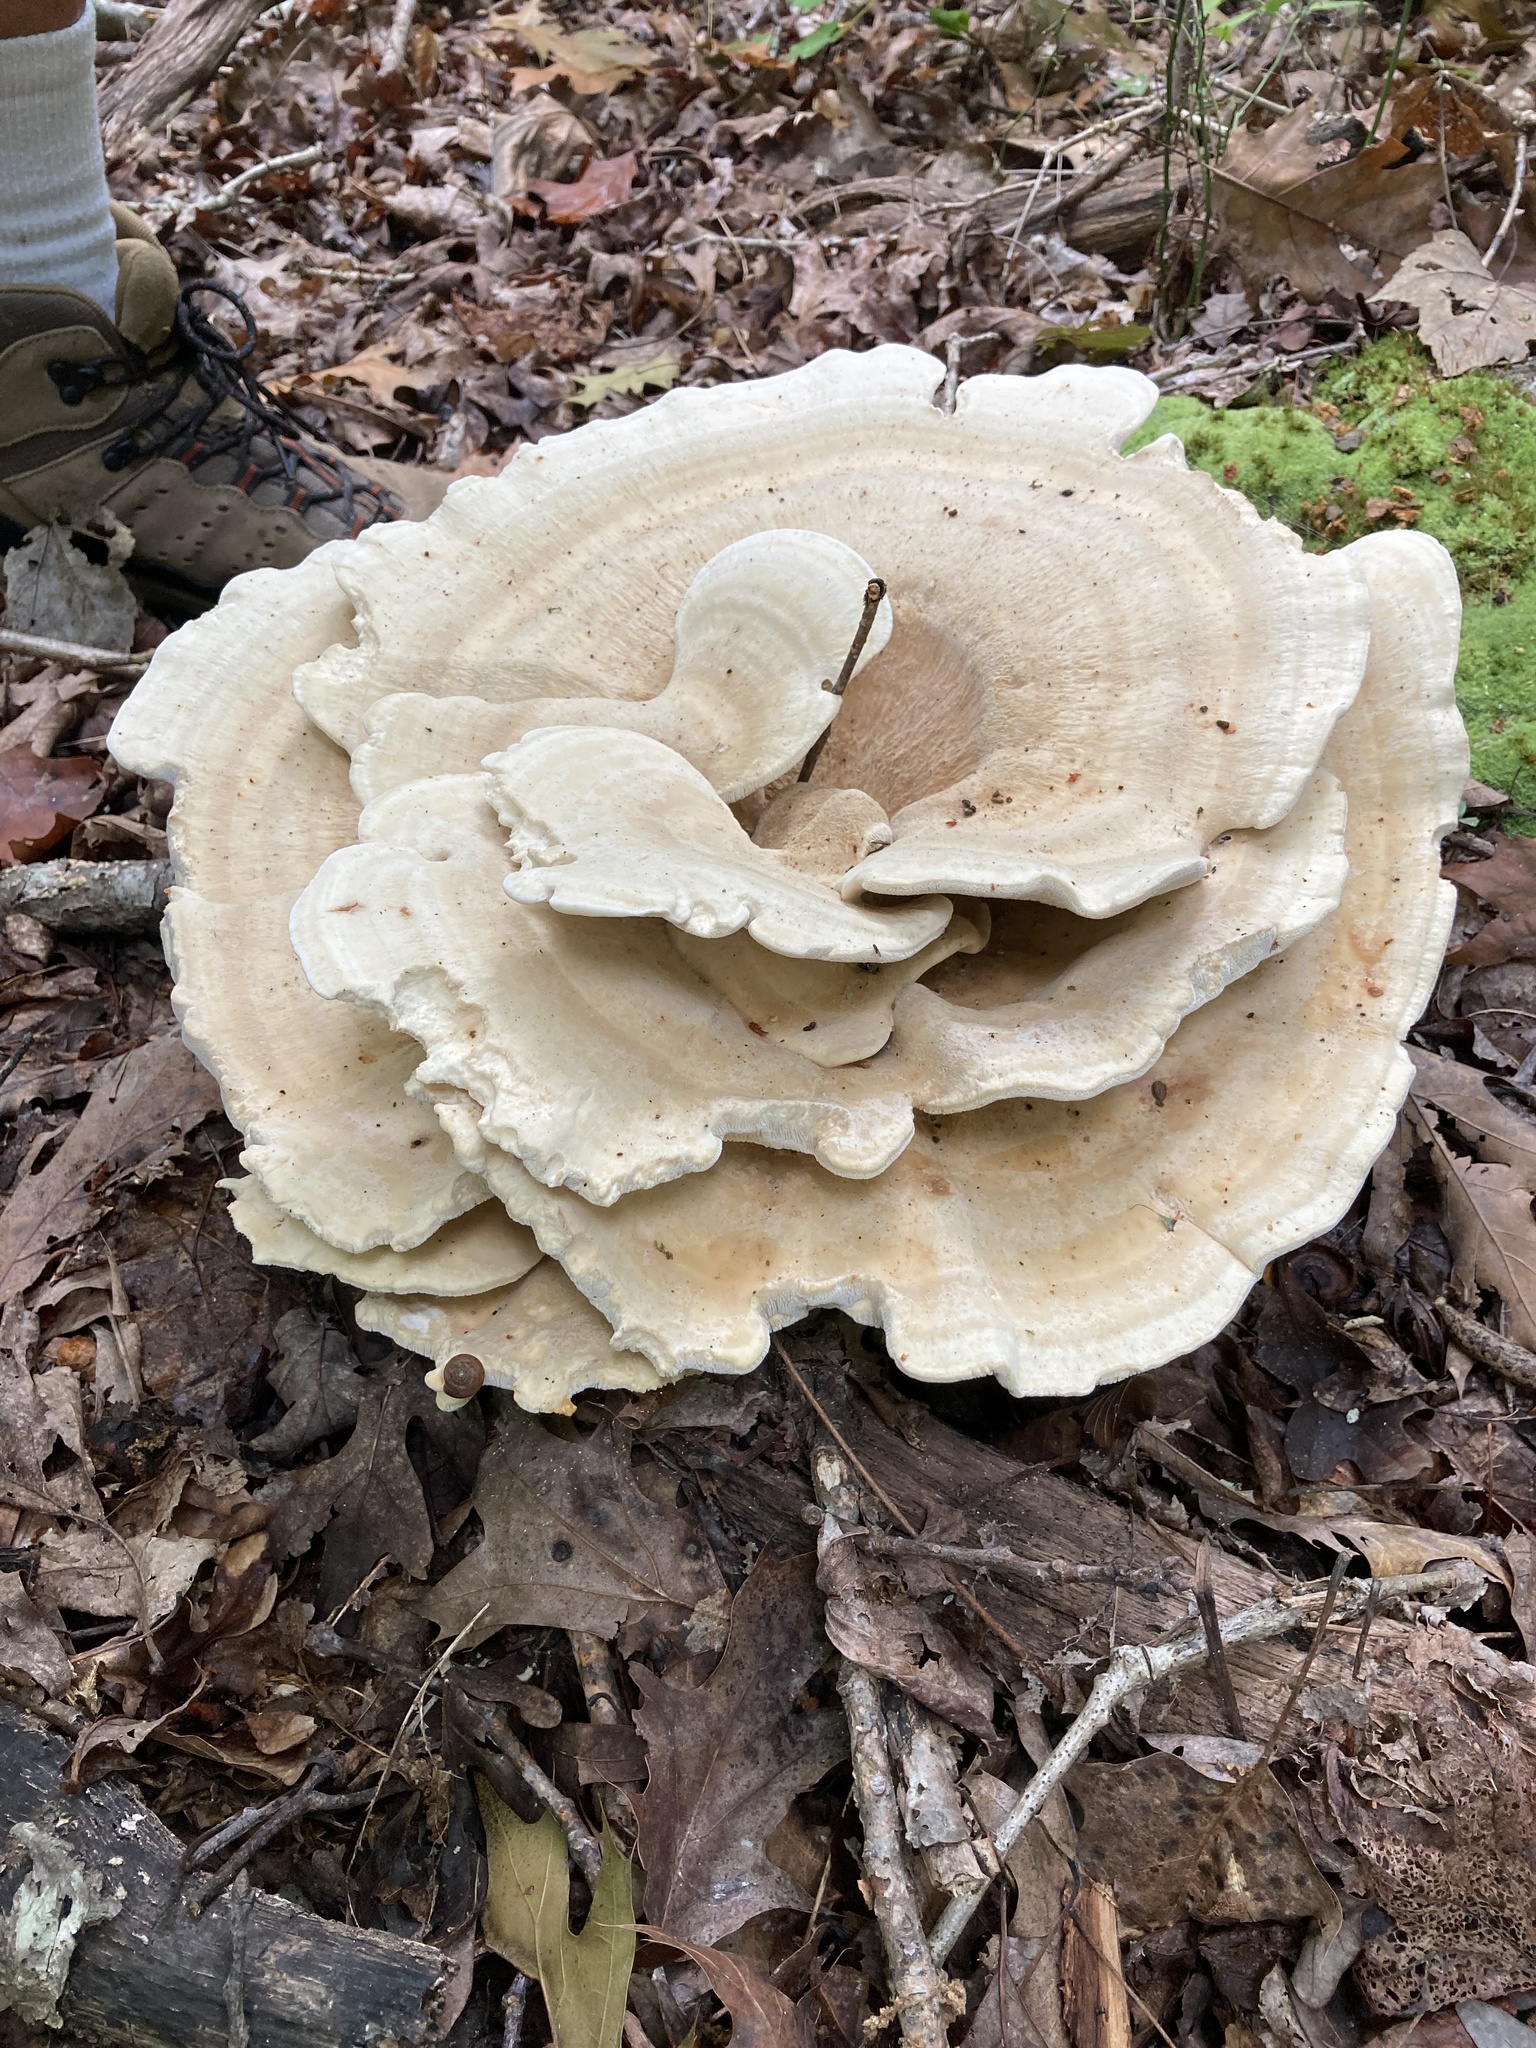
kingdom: Fungi
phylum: Basidiomycota
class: Agaricomycetes
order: Russulales
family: Bondarzewiaceae
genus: Bondarzewia
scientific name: Bondarzewia berkeleyi
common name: Berkeley's polypore
